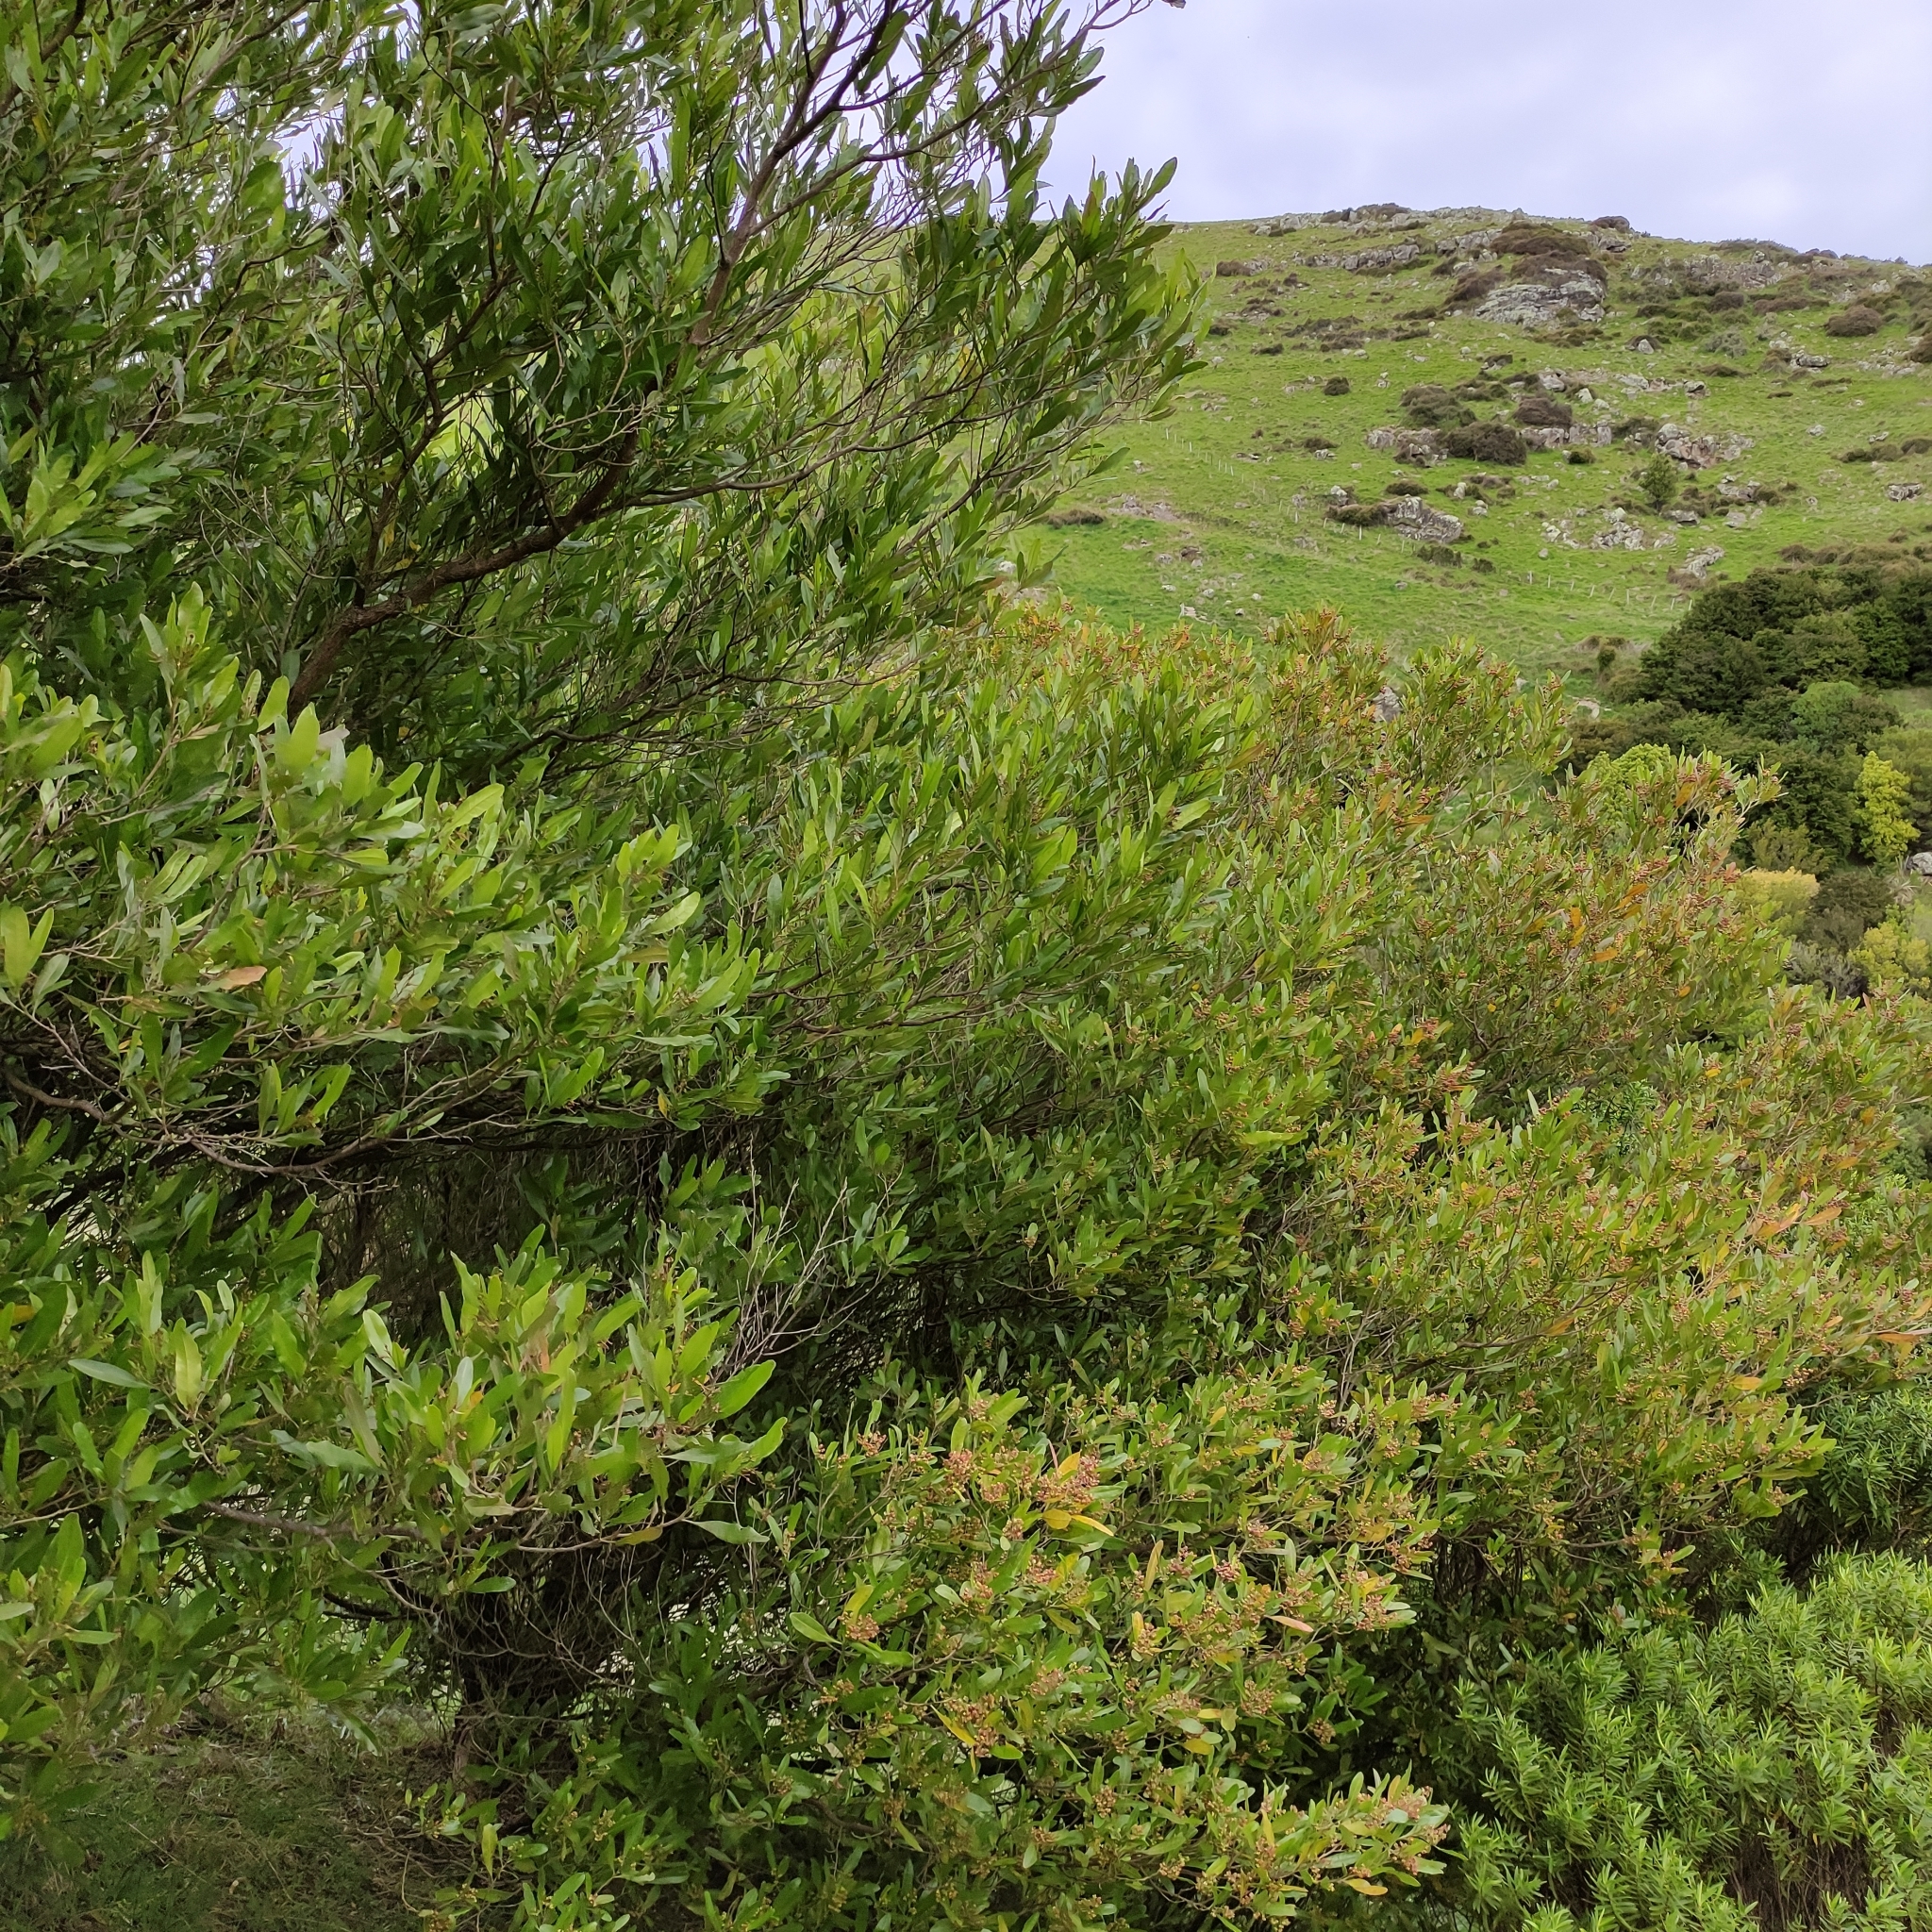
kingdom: Plantae
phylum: Tracheophyta
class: Magnoliopsida
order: Sapindales
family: Sapindaceae
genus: Dodonaea
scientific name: Dodonaea viscosa
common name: Hopbush
